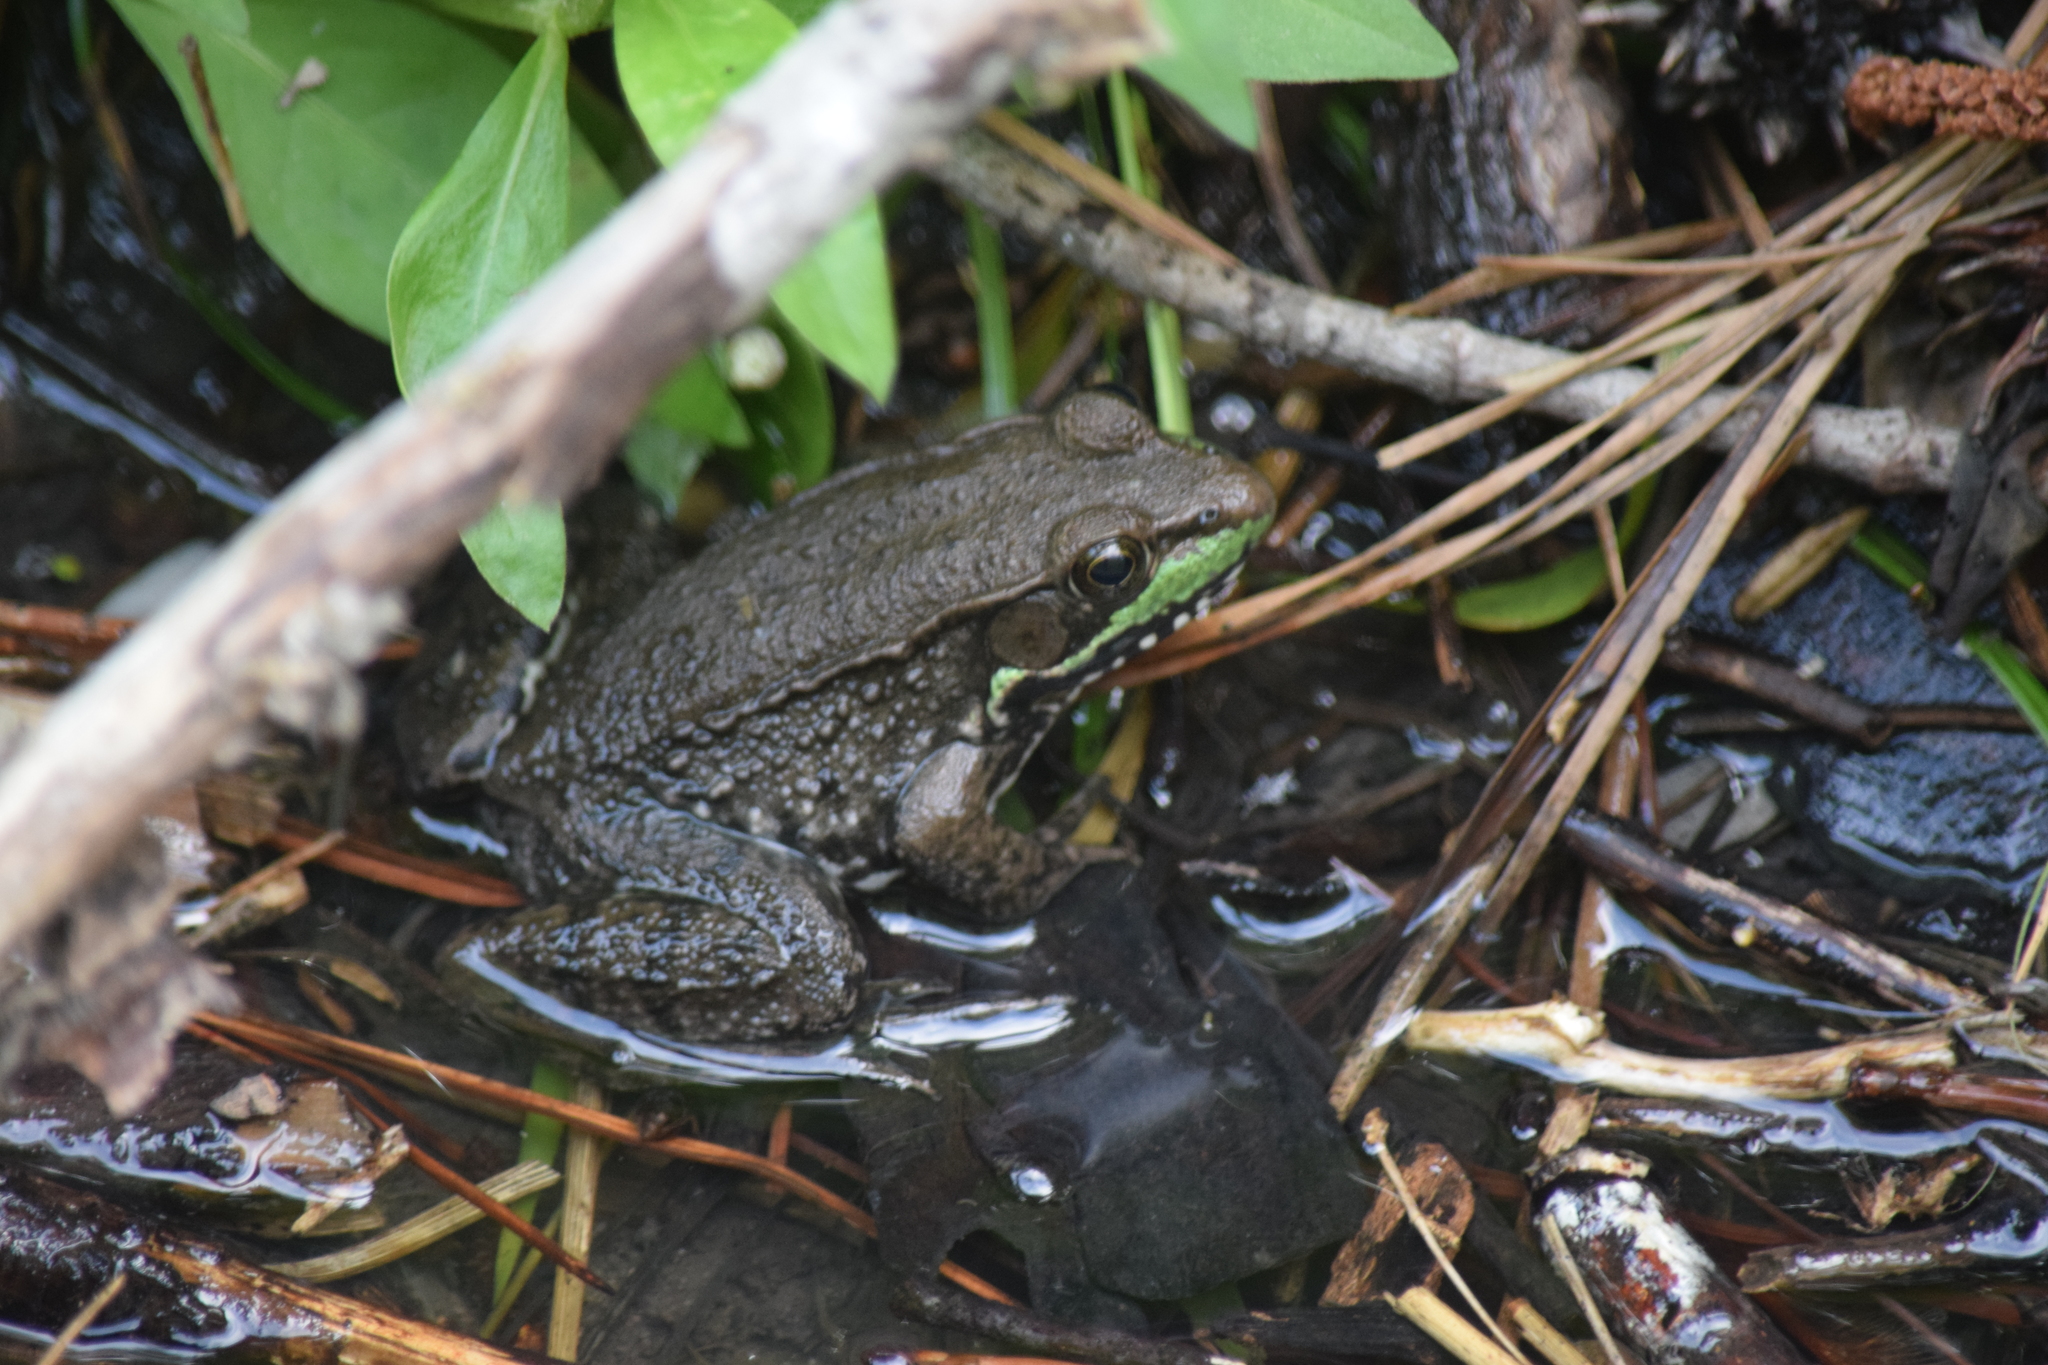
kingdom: Animalia
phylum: Chordata
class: Amphibia
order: Anura
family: Ranidae
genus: Lithobates
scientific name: Lithobates clamitans
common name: Green frog
